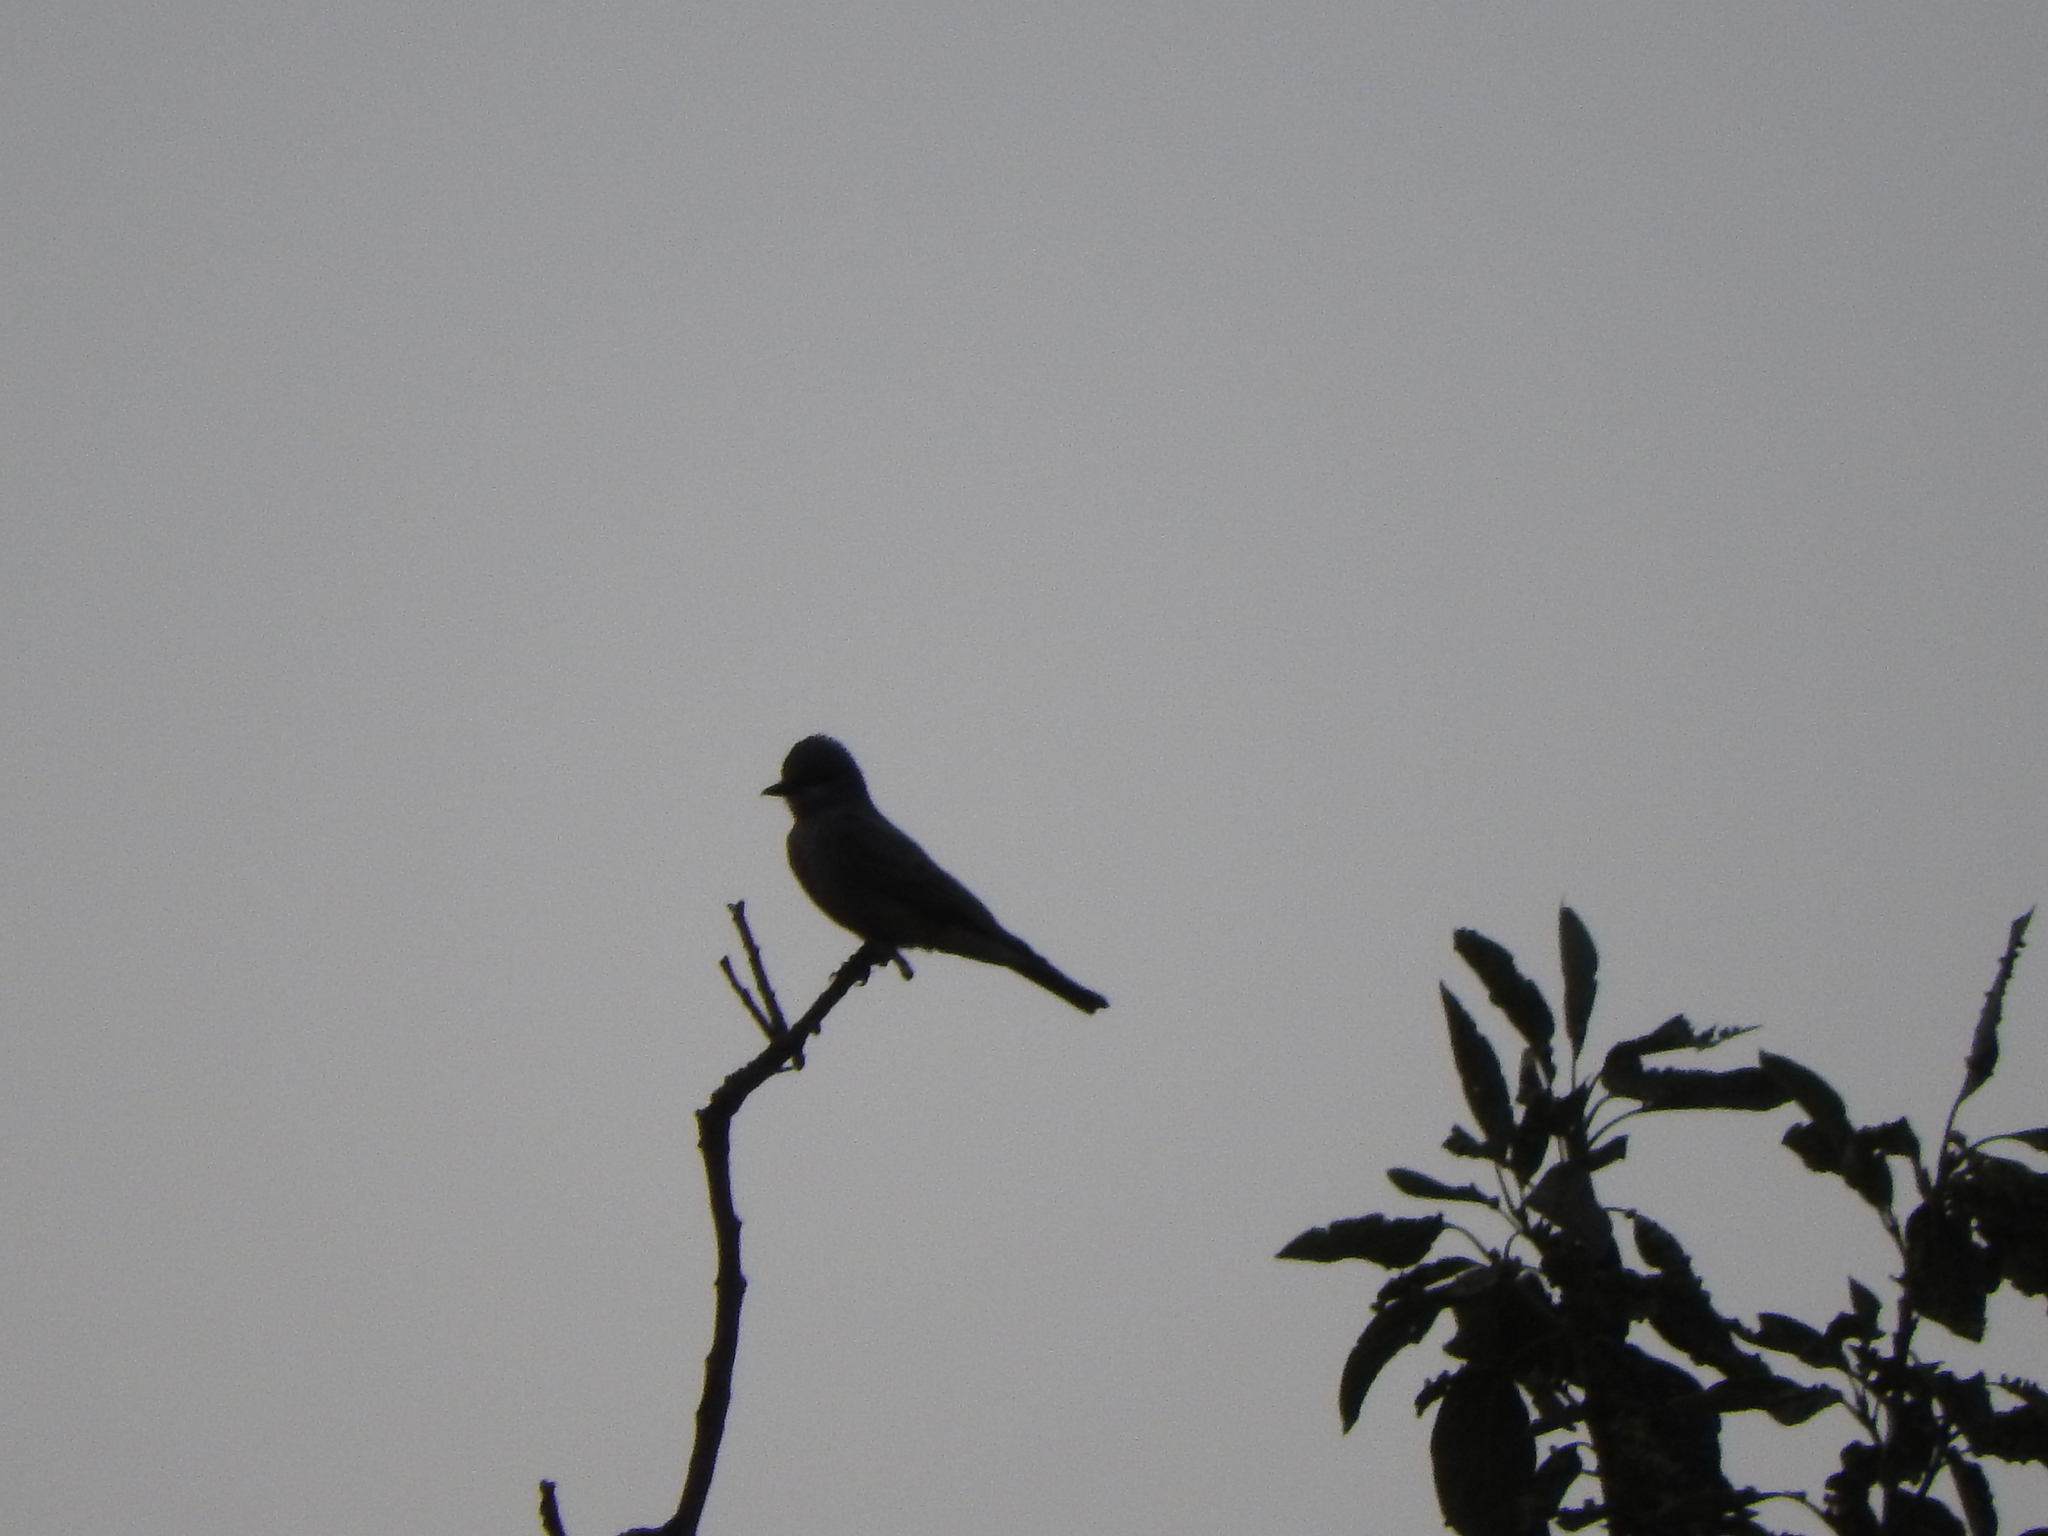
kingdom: Animalia
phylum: Chordata
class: Aves
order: Passeriformes
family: Tyrannidae
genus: Tyrannus
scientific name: Tyrannus vociferans
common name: Cassin's kingbird
